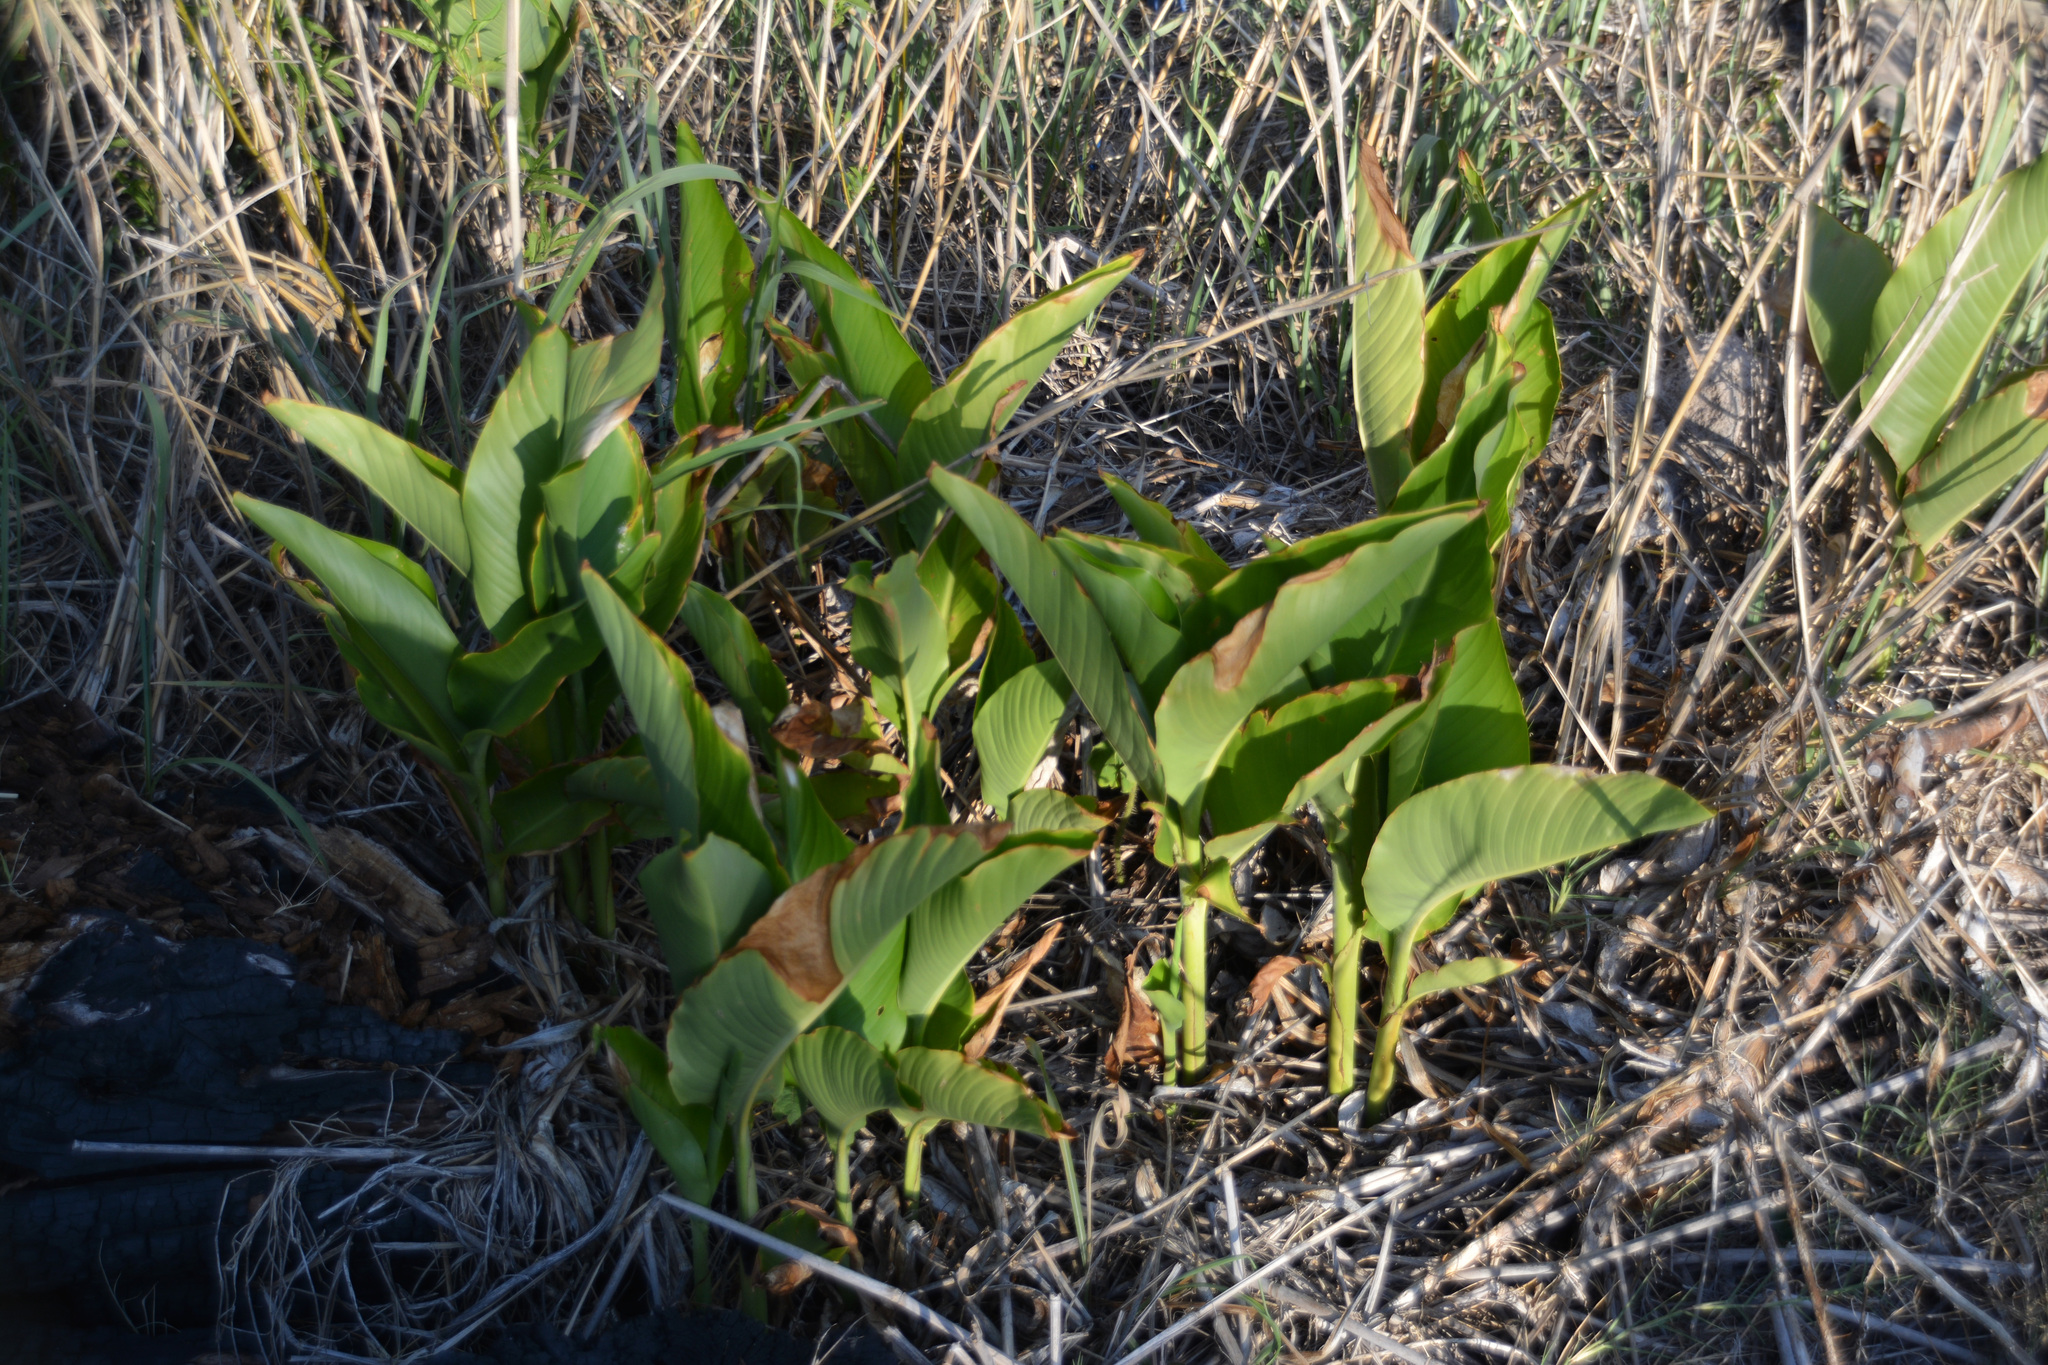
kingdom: Plantae
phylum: Tracheophyta
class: Liliopsida
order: Zingiberales
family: Cannaceae
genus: Canna
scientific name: Canna indica
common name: Indian shot
